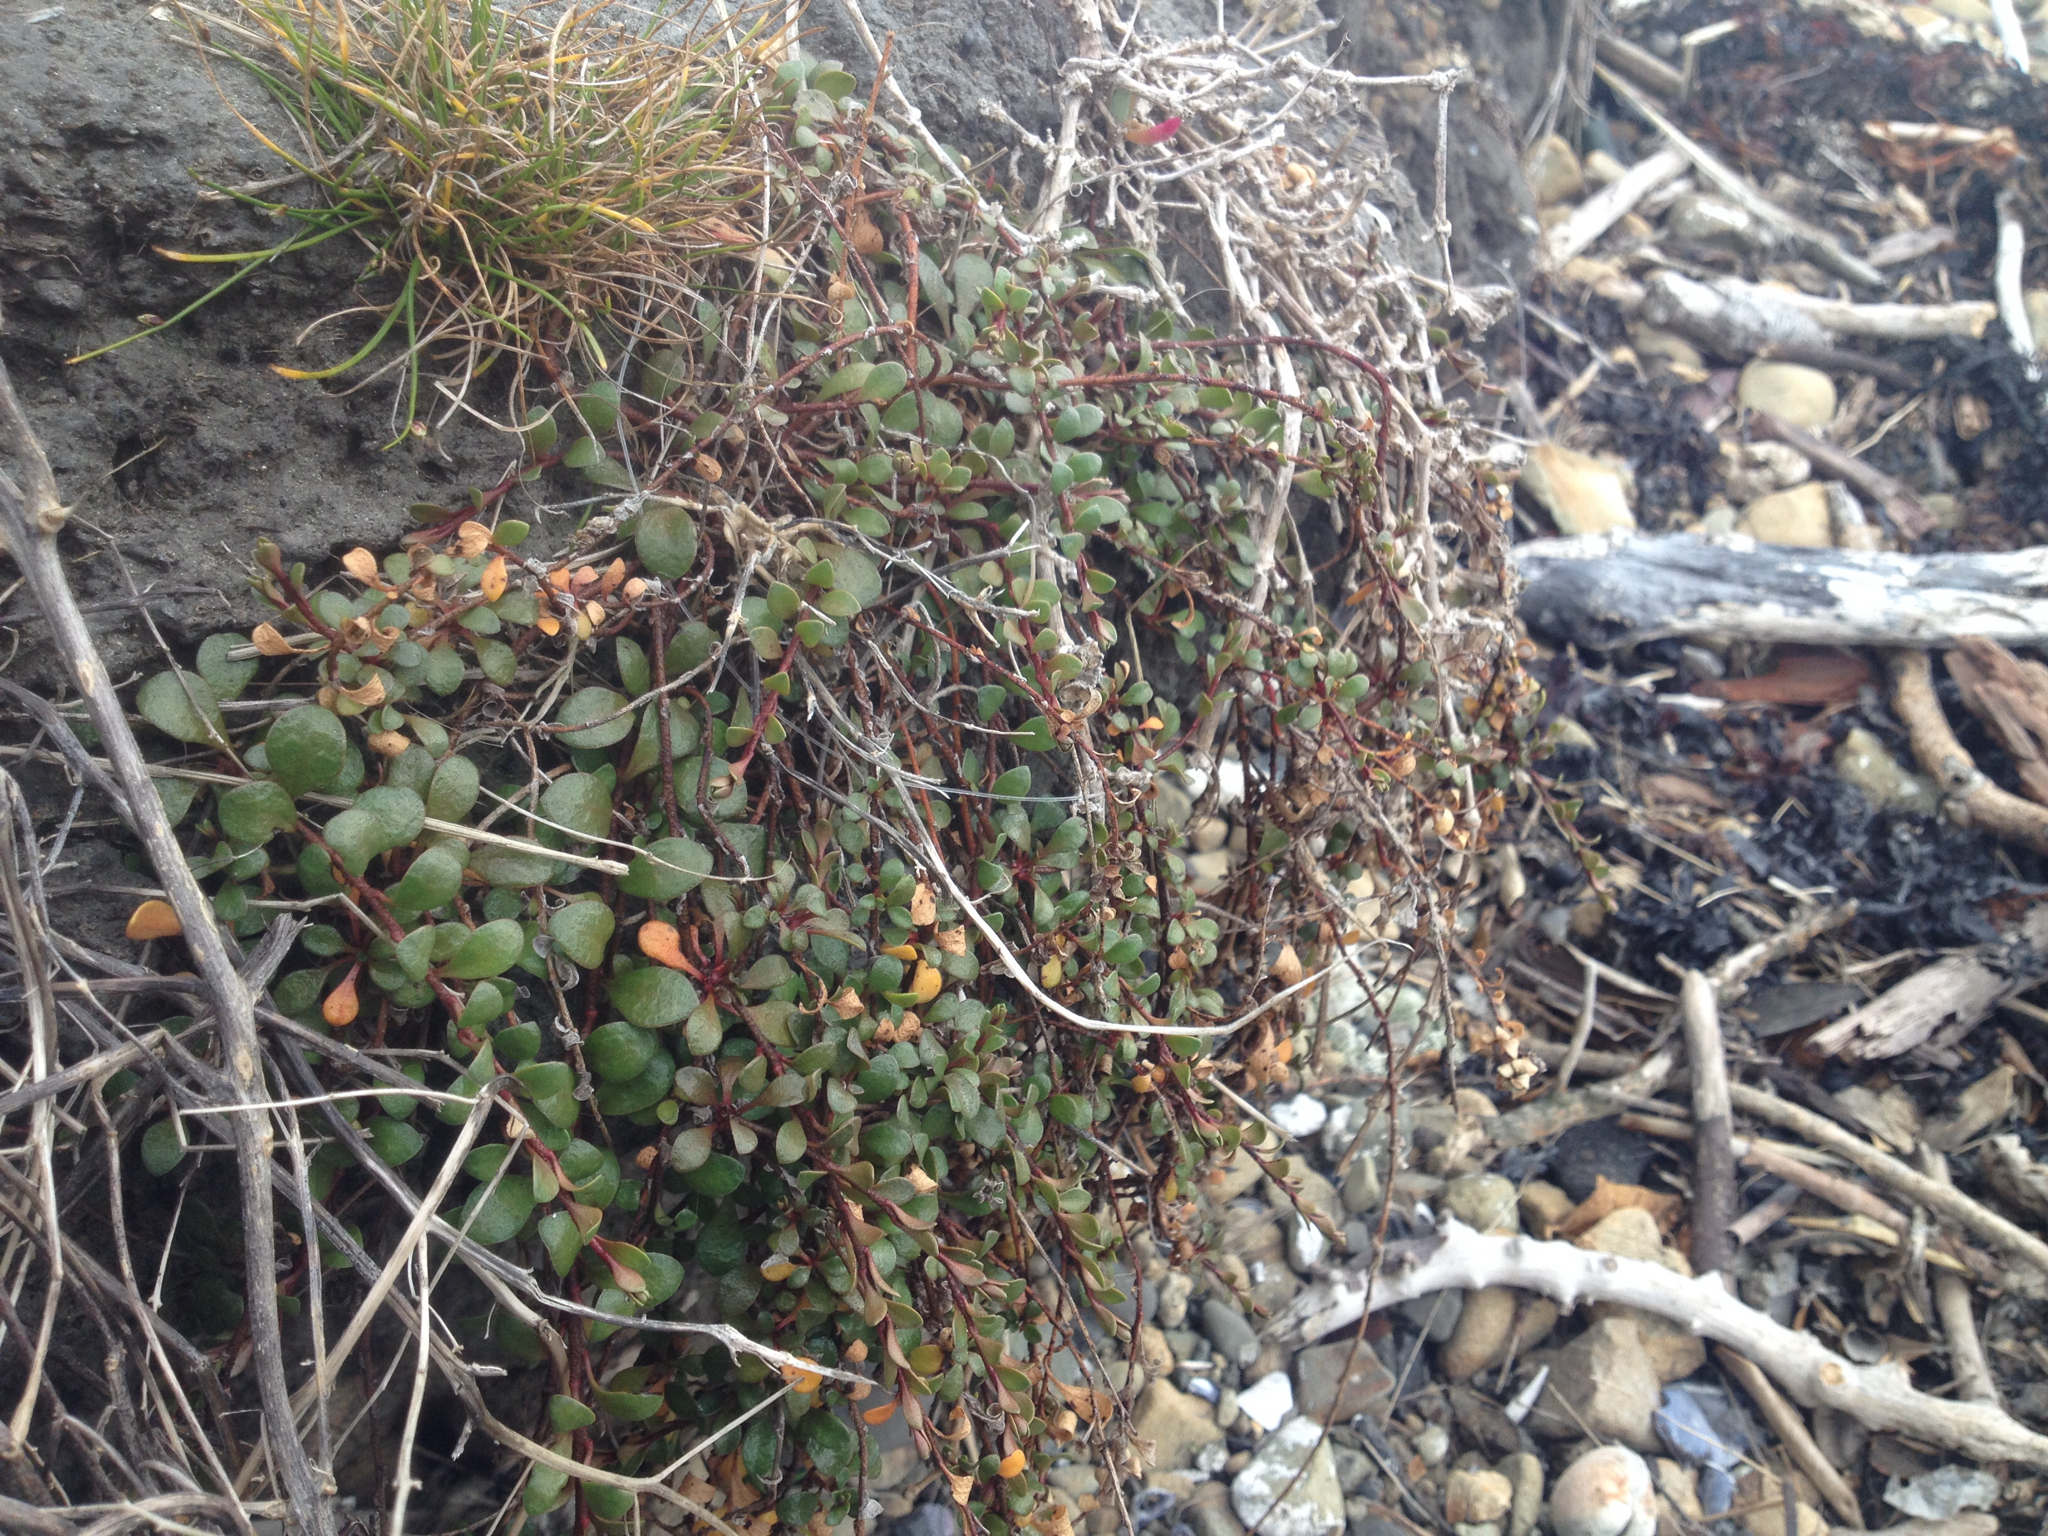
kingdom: Plantae
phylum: Tracheophyta
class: Magnoliopsida
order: Ericales
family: Primulaceae
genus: Samolus
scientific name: Samolus repens
